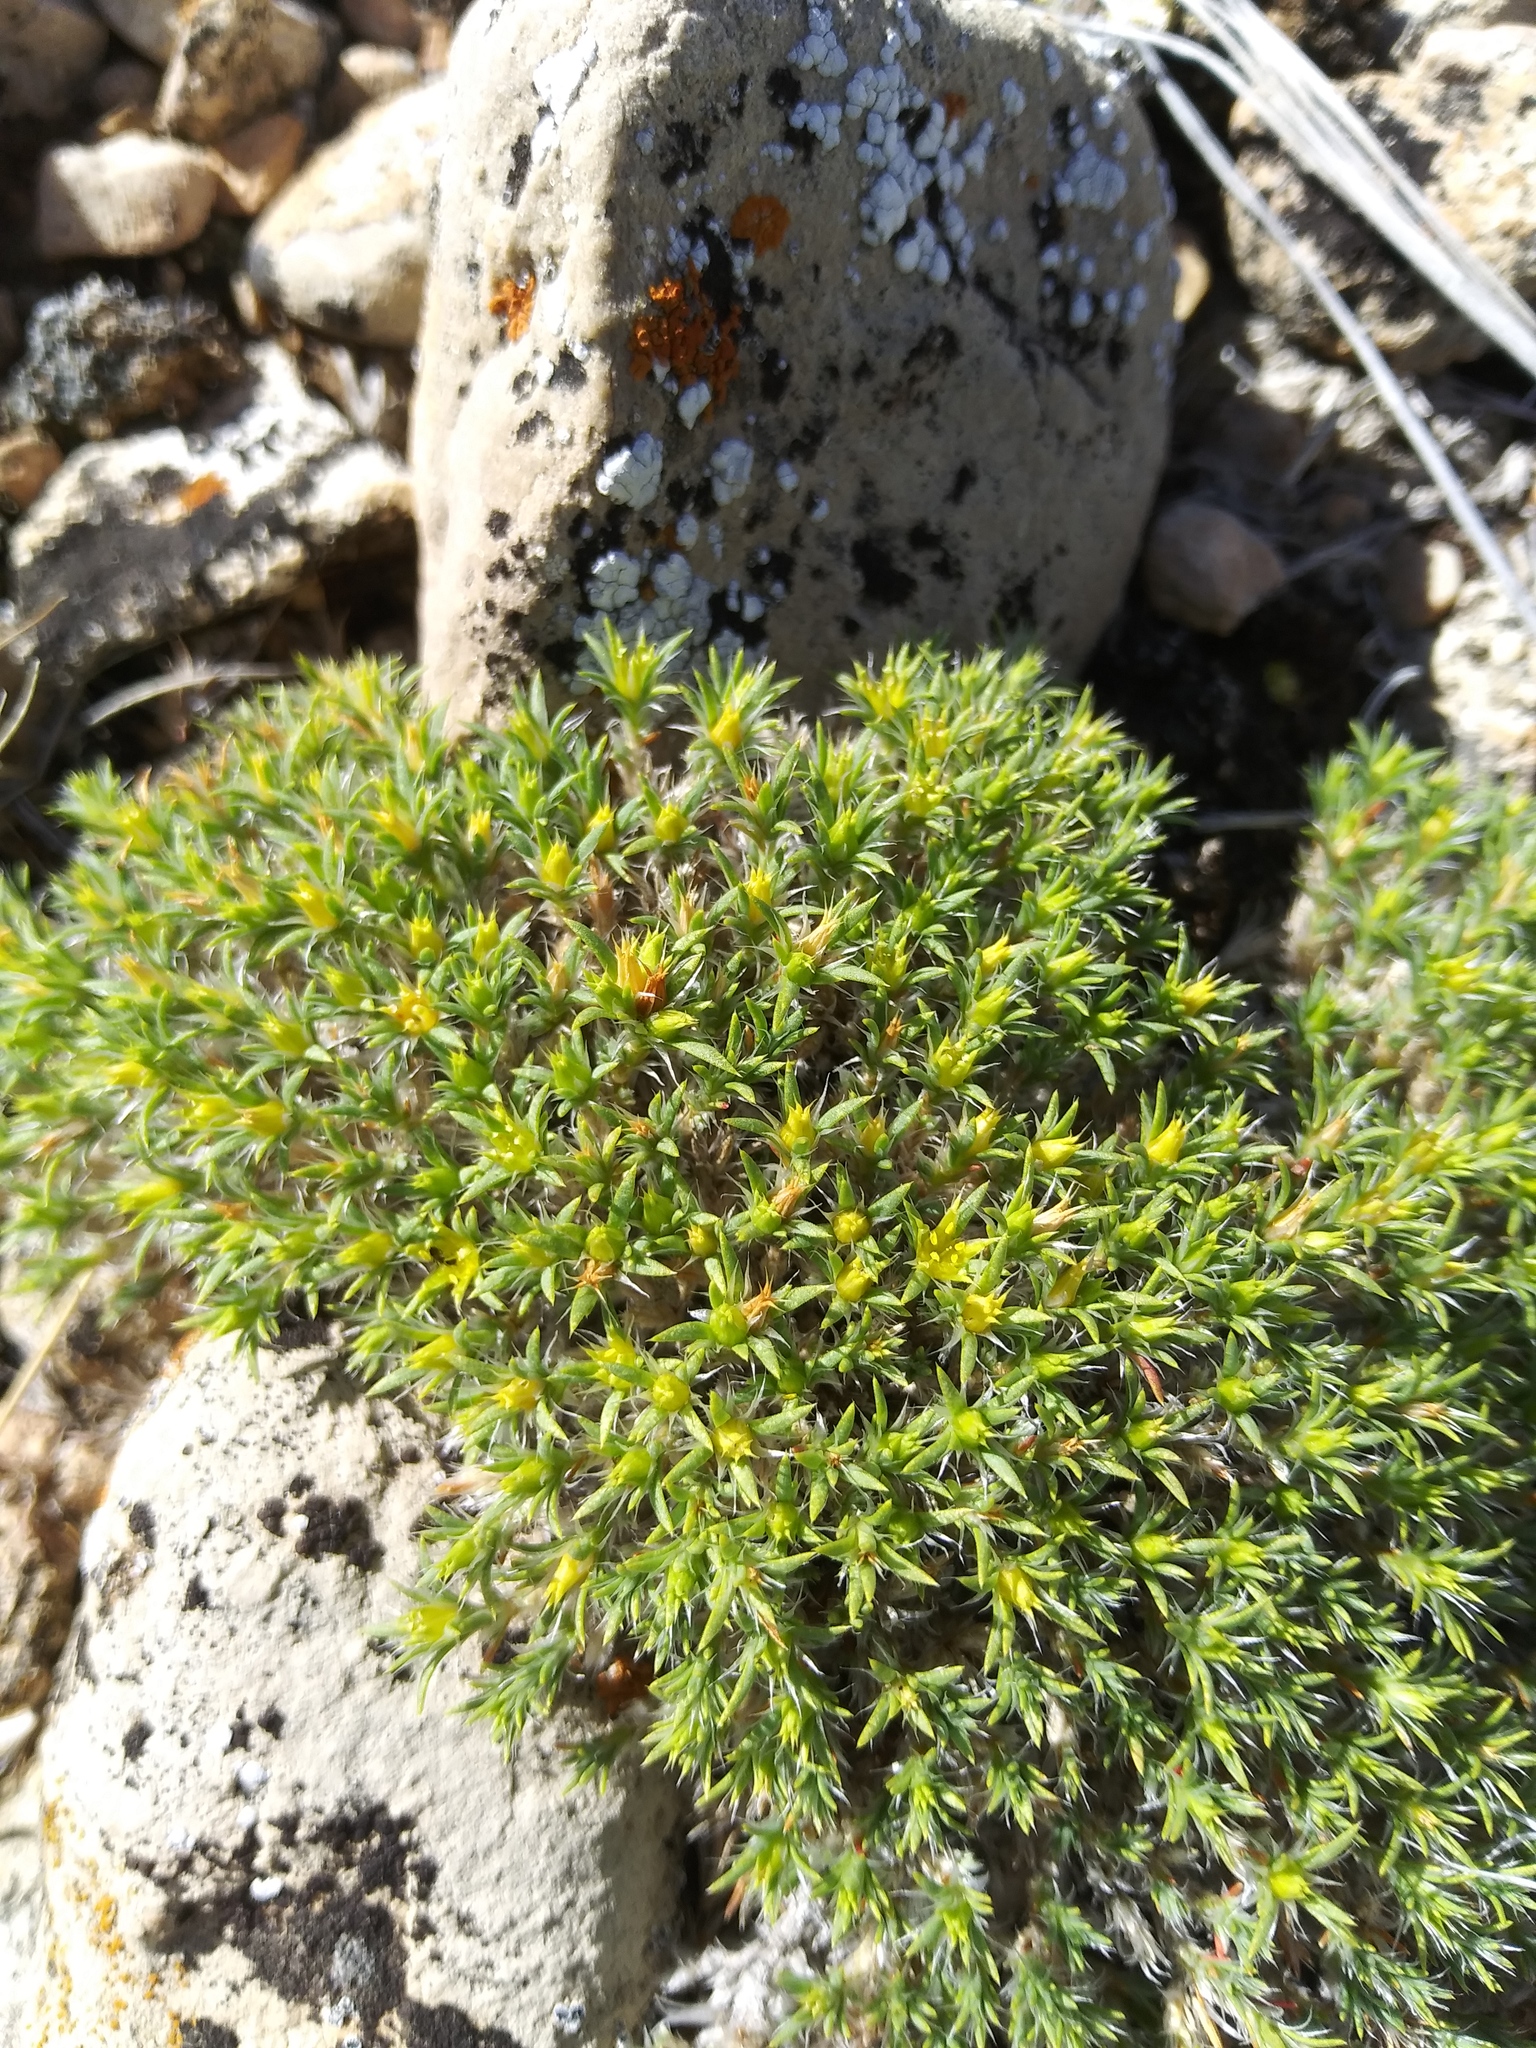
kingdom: Plantae
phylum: Tracheophyta
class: Magnoliopsida
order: Caryophyllales
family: Caryophyllaceae
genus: Paronychia
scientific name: Paronychia sessiliflora
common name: Creeping nailwort
